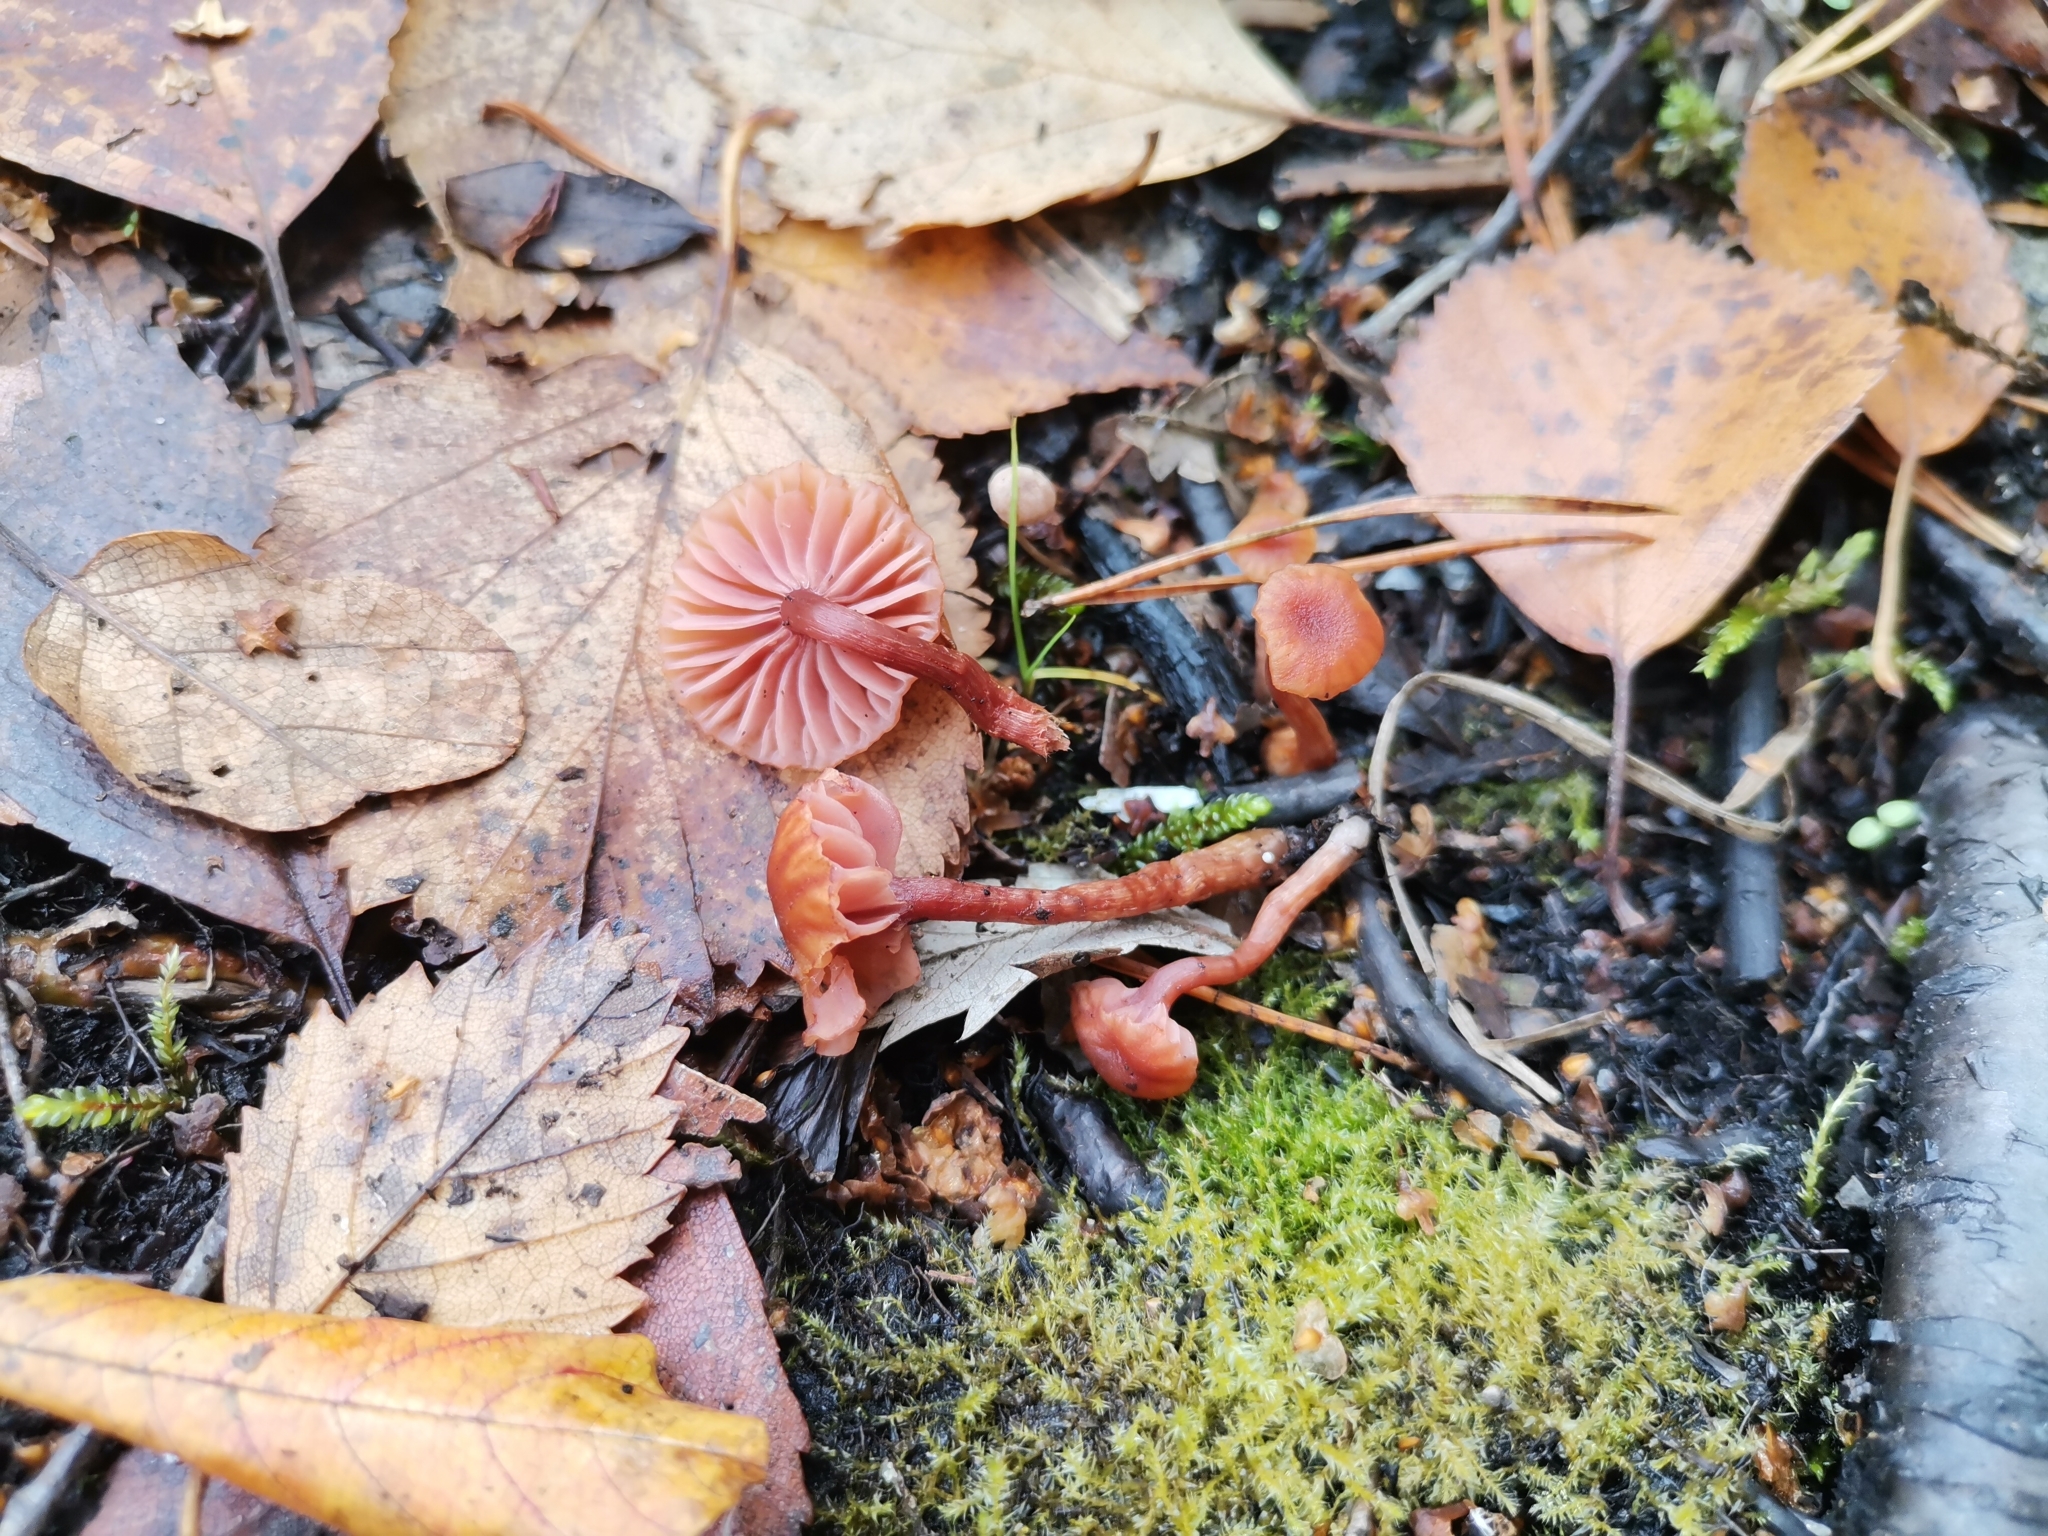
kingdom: Fungi
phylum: Basidiomycota
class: Agaricomycetes
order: Agaricales
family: Hydnangiaceae
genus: Laccaria
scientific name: Laccaria laccata
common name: Deceiver
